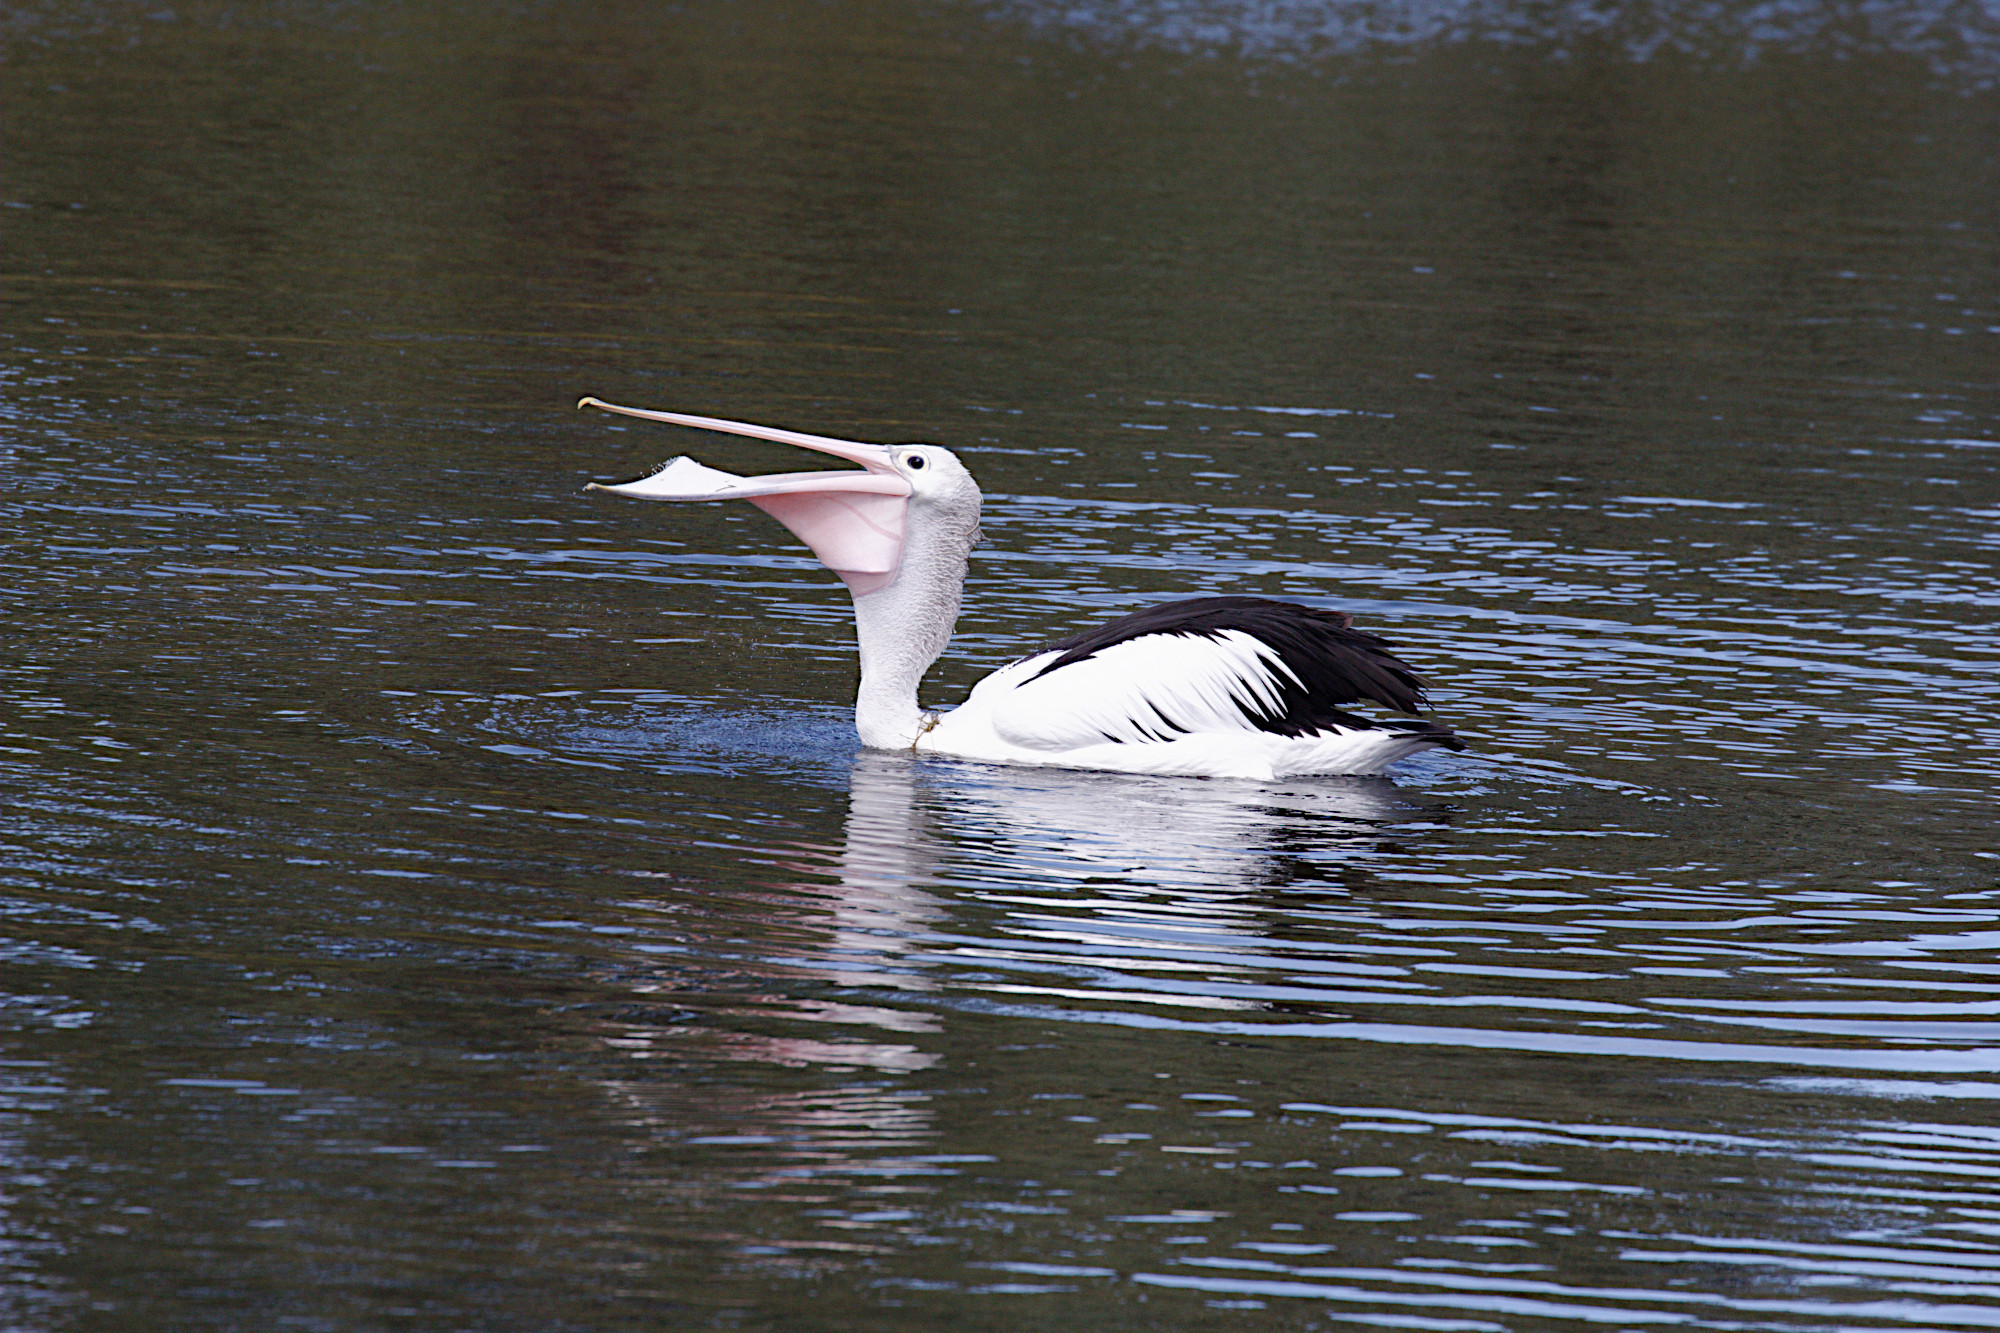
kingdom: Animalia
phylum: Chordata
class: Aves
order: Pelecaniformes
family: Pelecanidae
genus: Pelecanus
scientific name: Pelecanus conspicillatus
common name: Australian pelican
